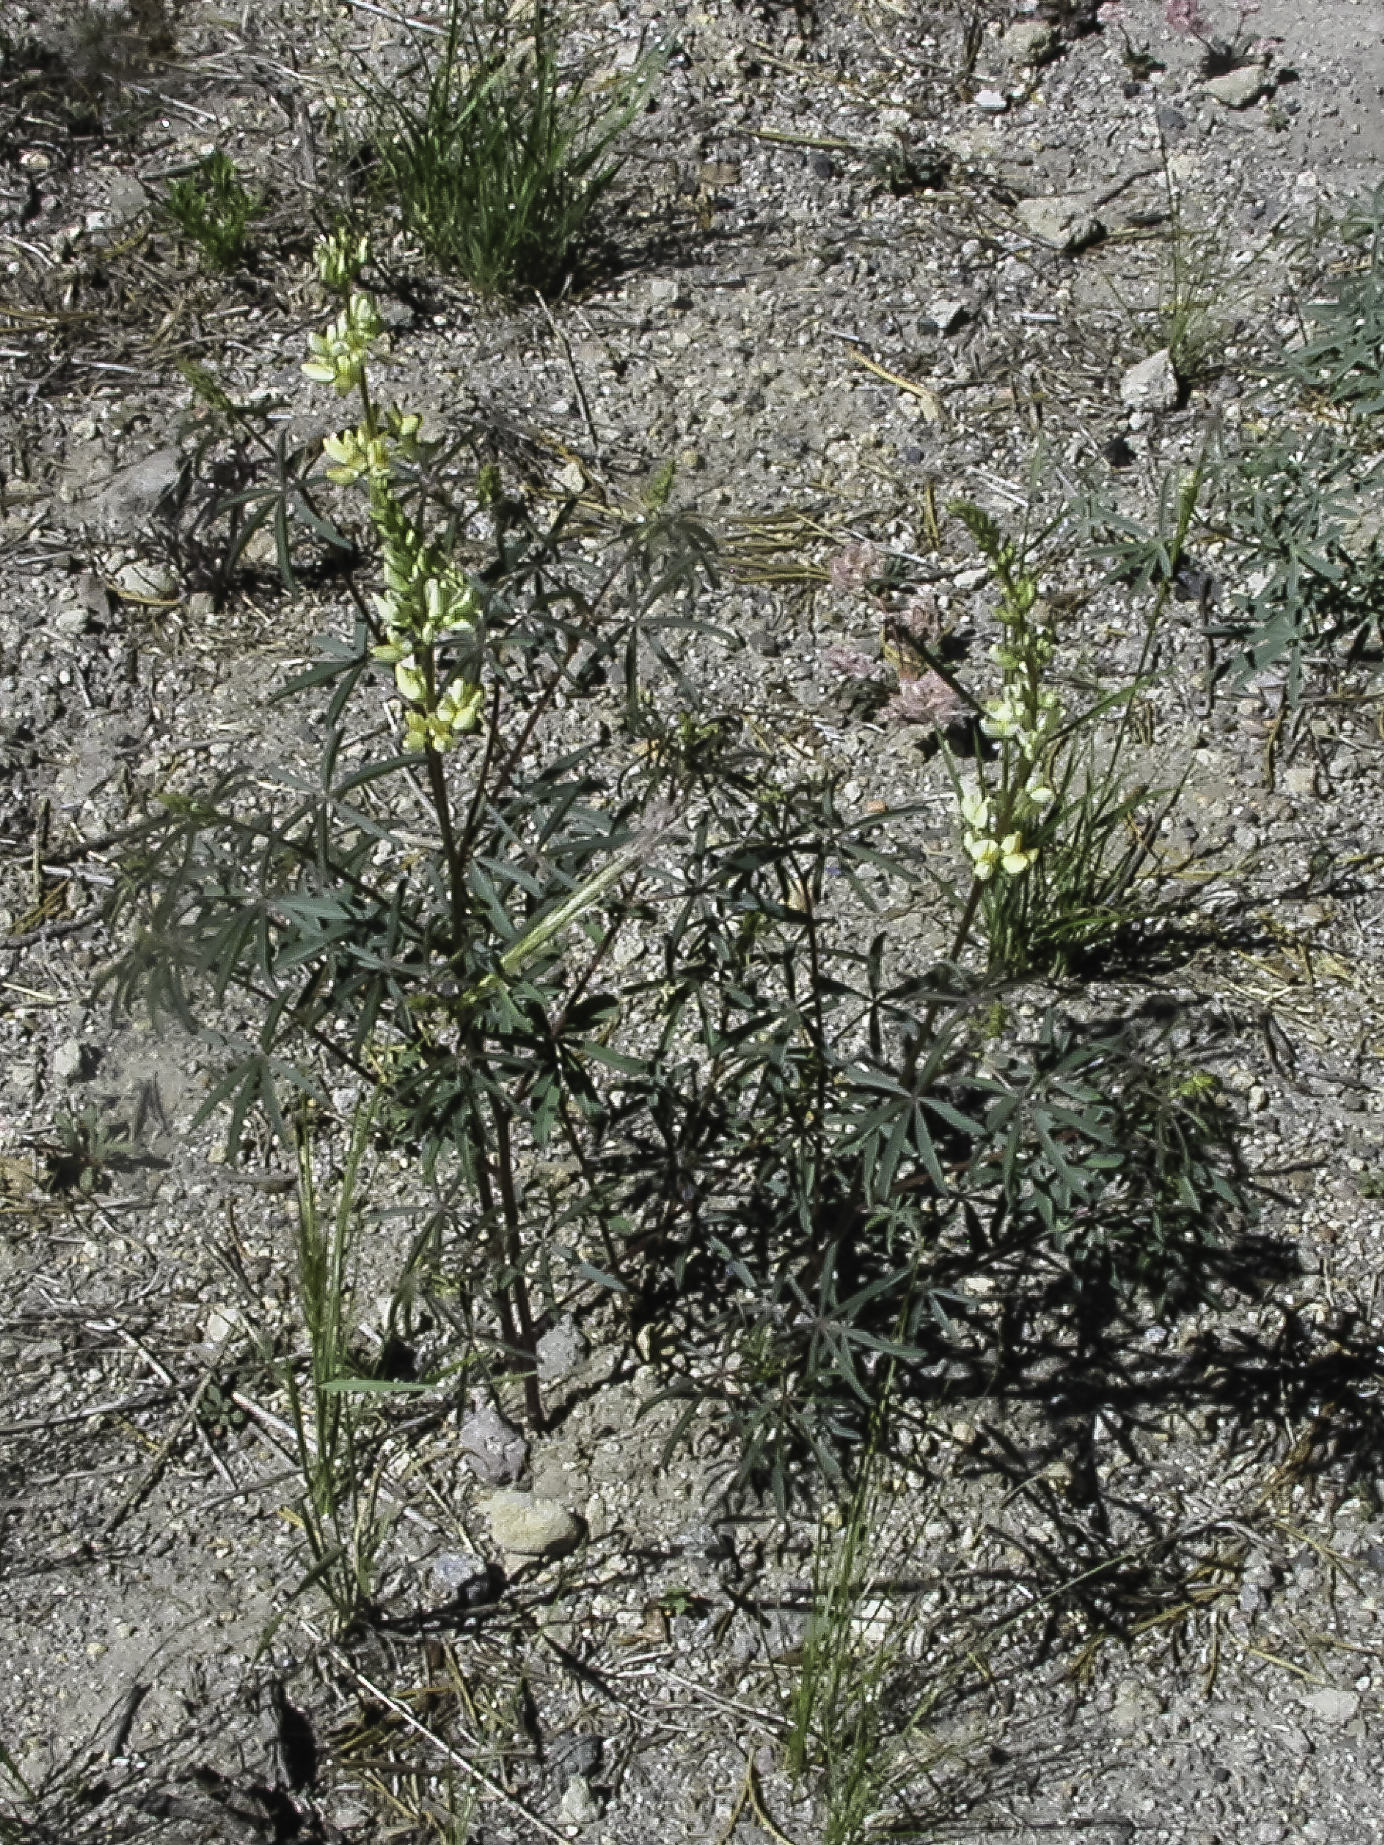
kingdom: Plantae
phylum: Tracheophyta
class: Magnoliopsida
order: Fabales
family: Fabaceae
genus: Lupinus
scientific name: Lupinus angustiflorus
